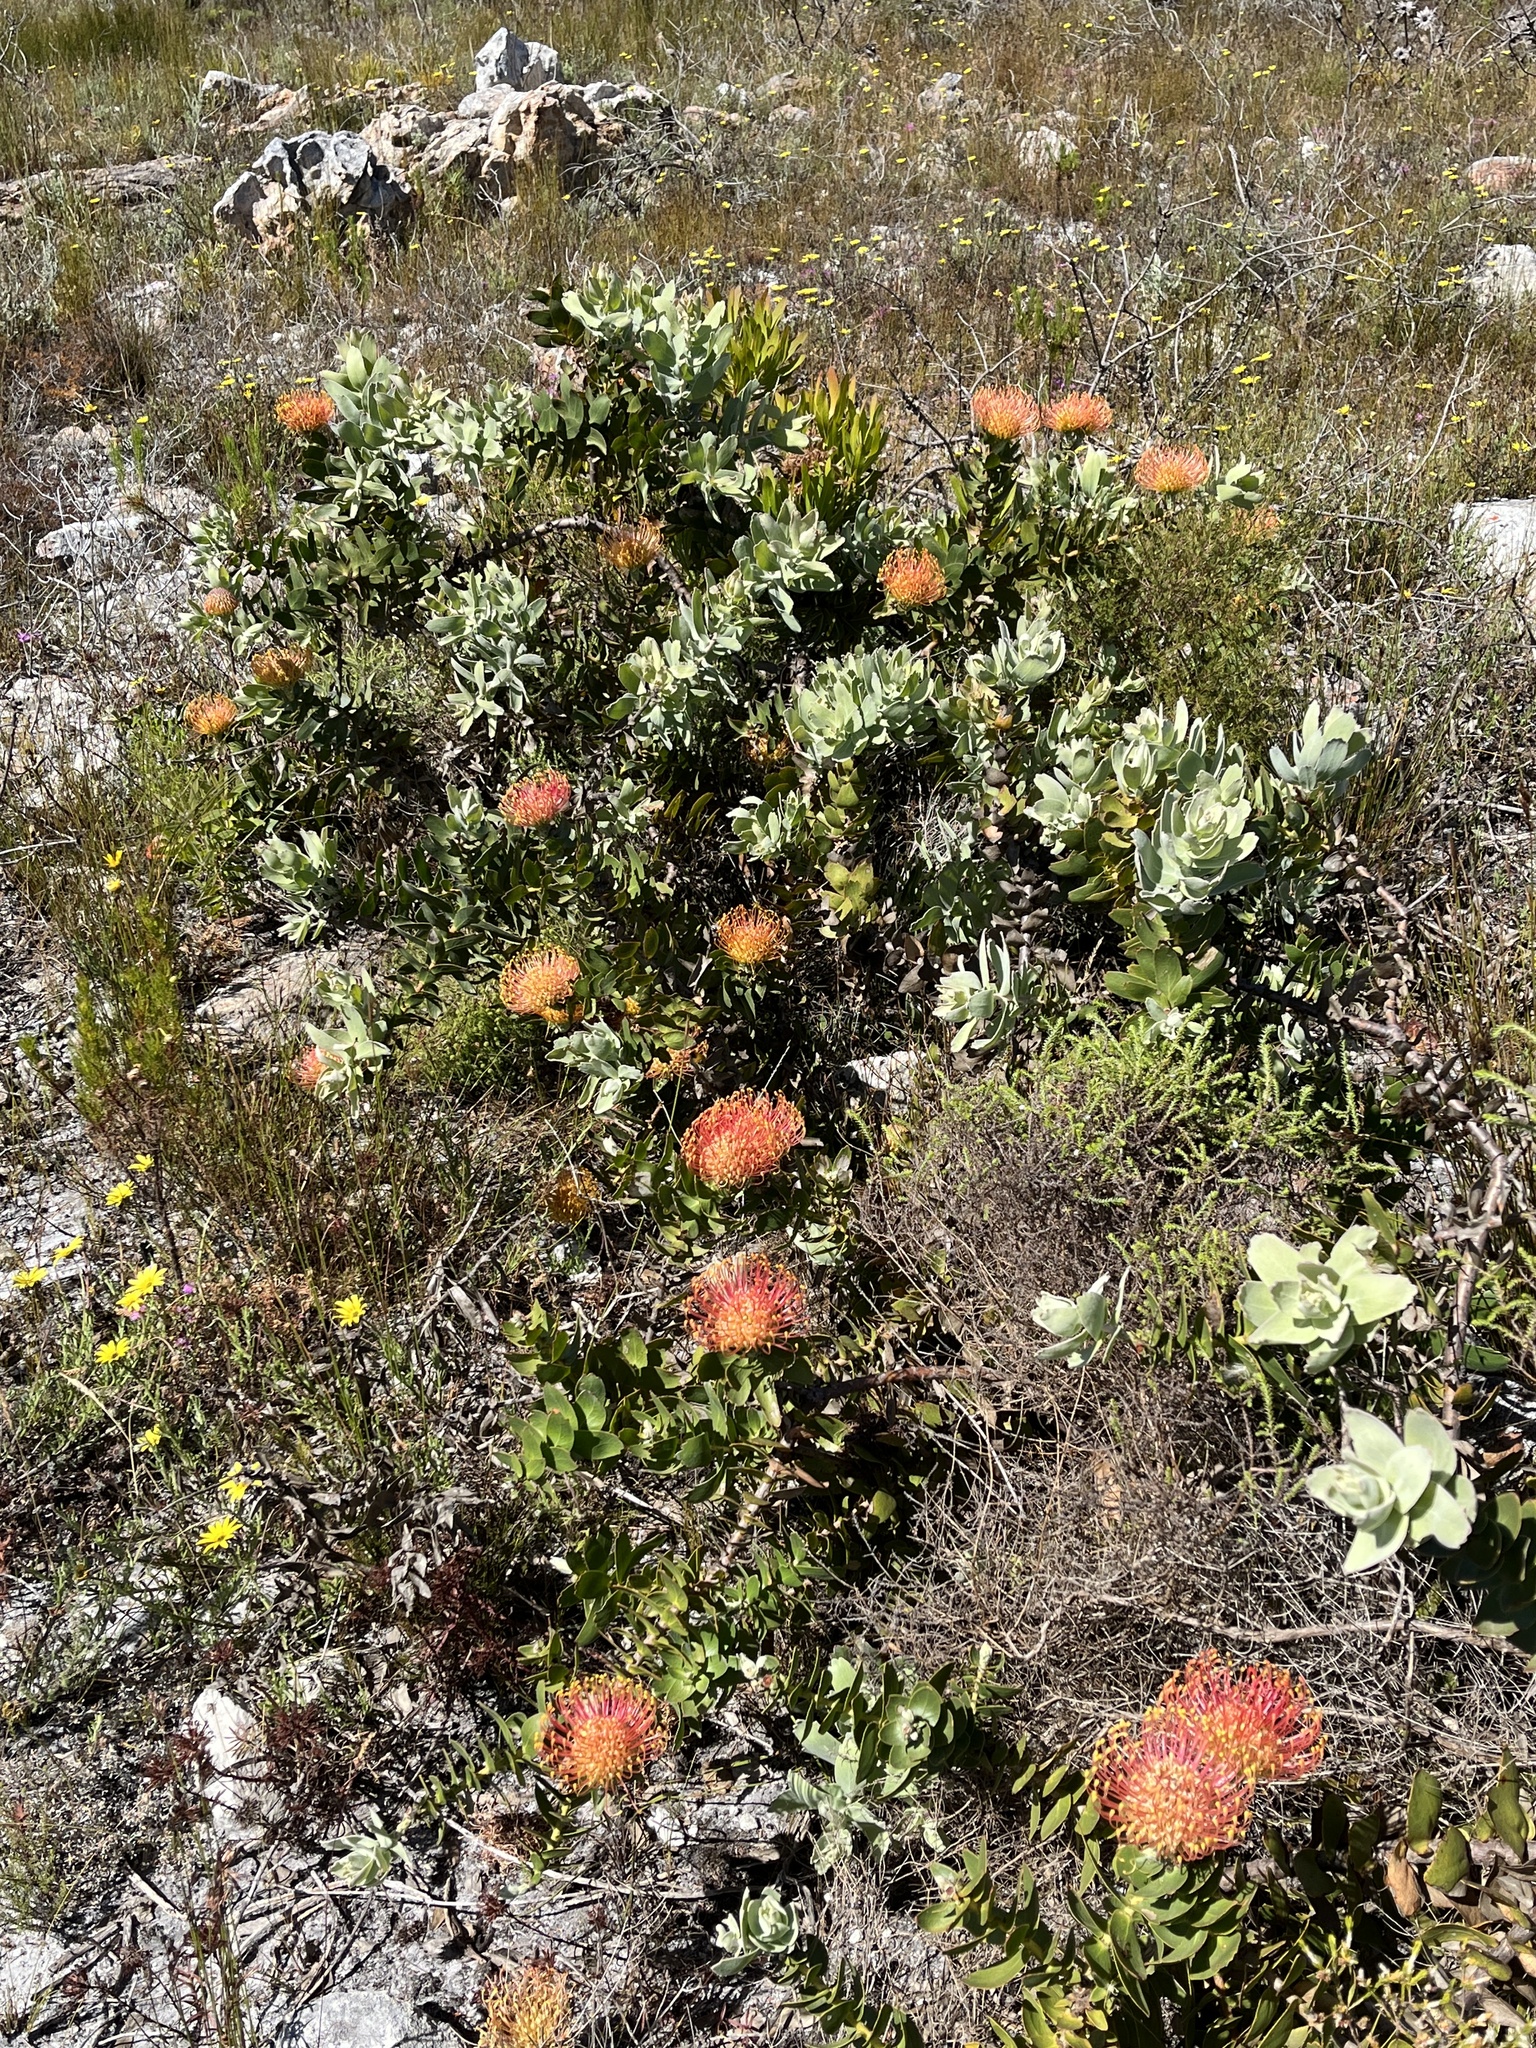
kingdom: Plantae
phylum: Tracheophyta
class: Magnoliopsida
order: Proteales
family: Proteaceae
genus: Leucospermum
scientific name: Leucospermum cordifolium
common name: Red pincushion-protea
